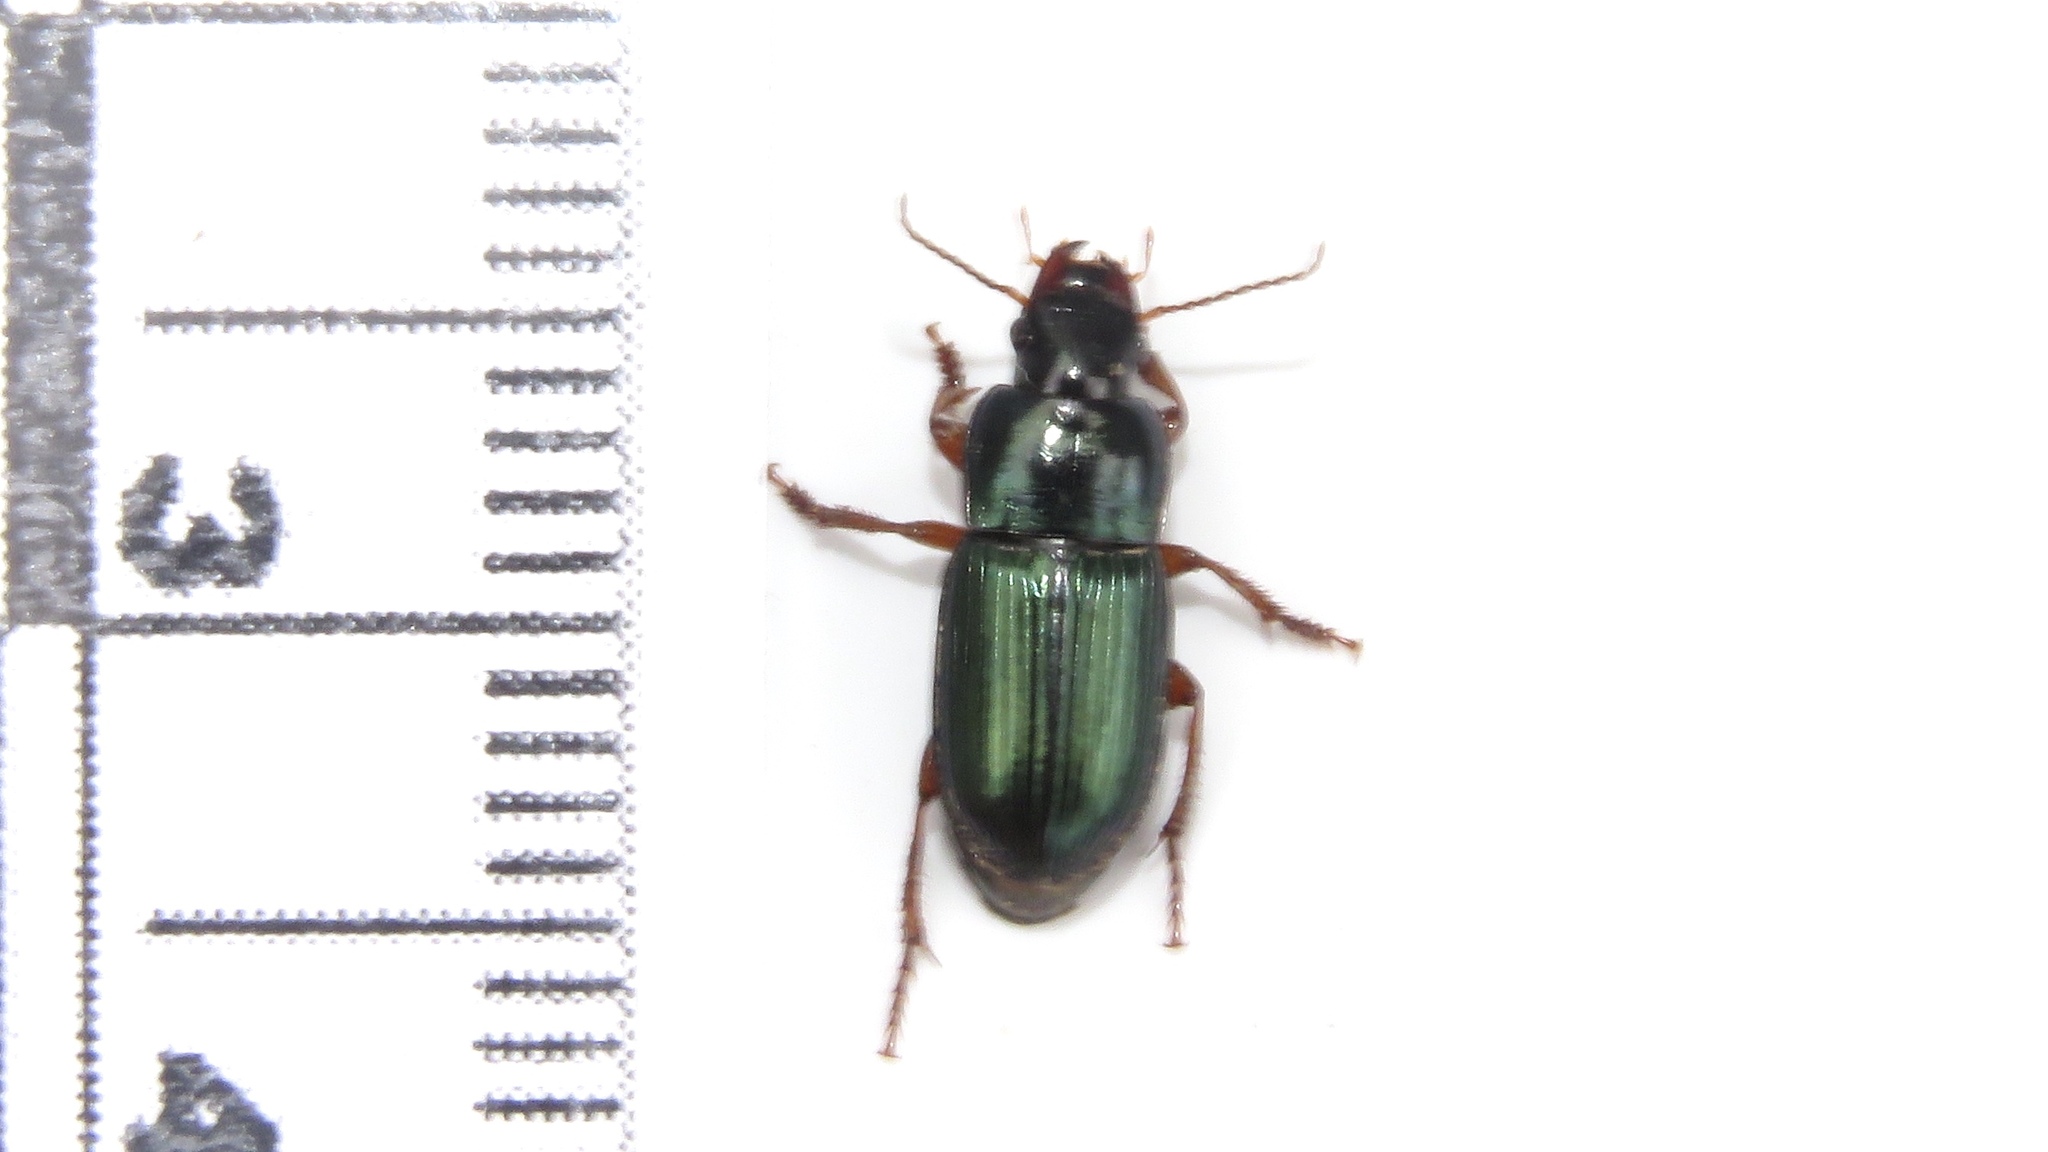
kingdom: Animalia
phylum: Arthropoda
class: Insecta
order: Coleoptera
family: Carabidae
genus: Harpalus
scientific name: Harpalus rubripes
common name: Red-legged harp ground beetle
